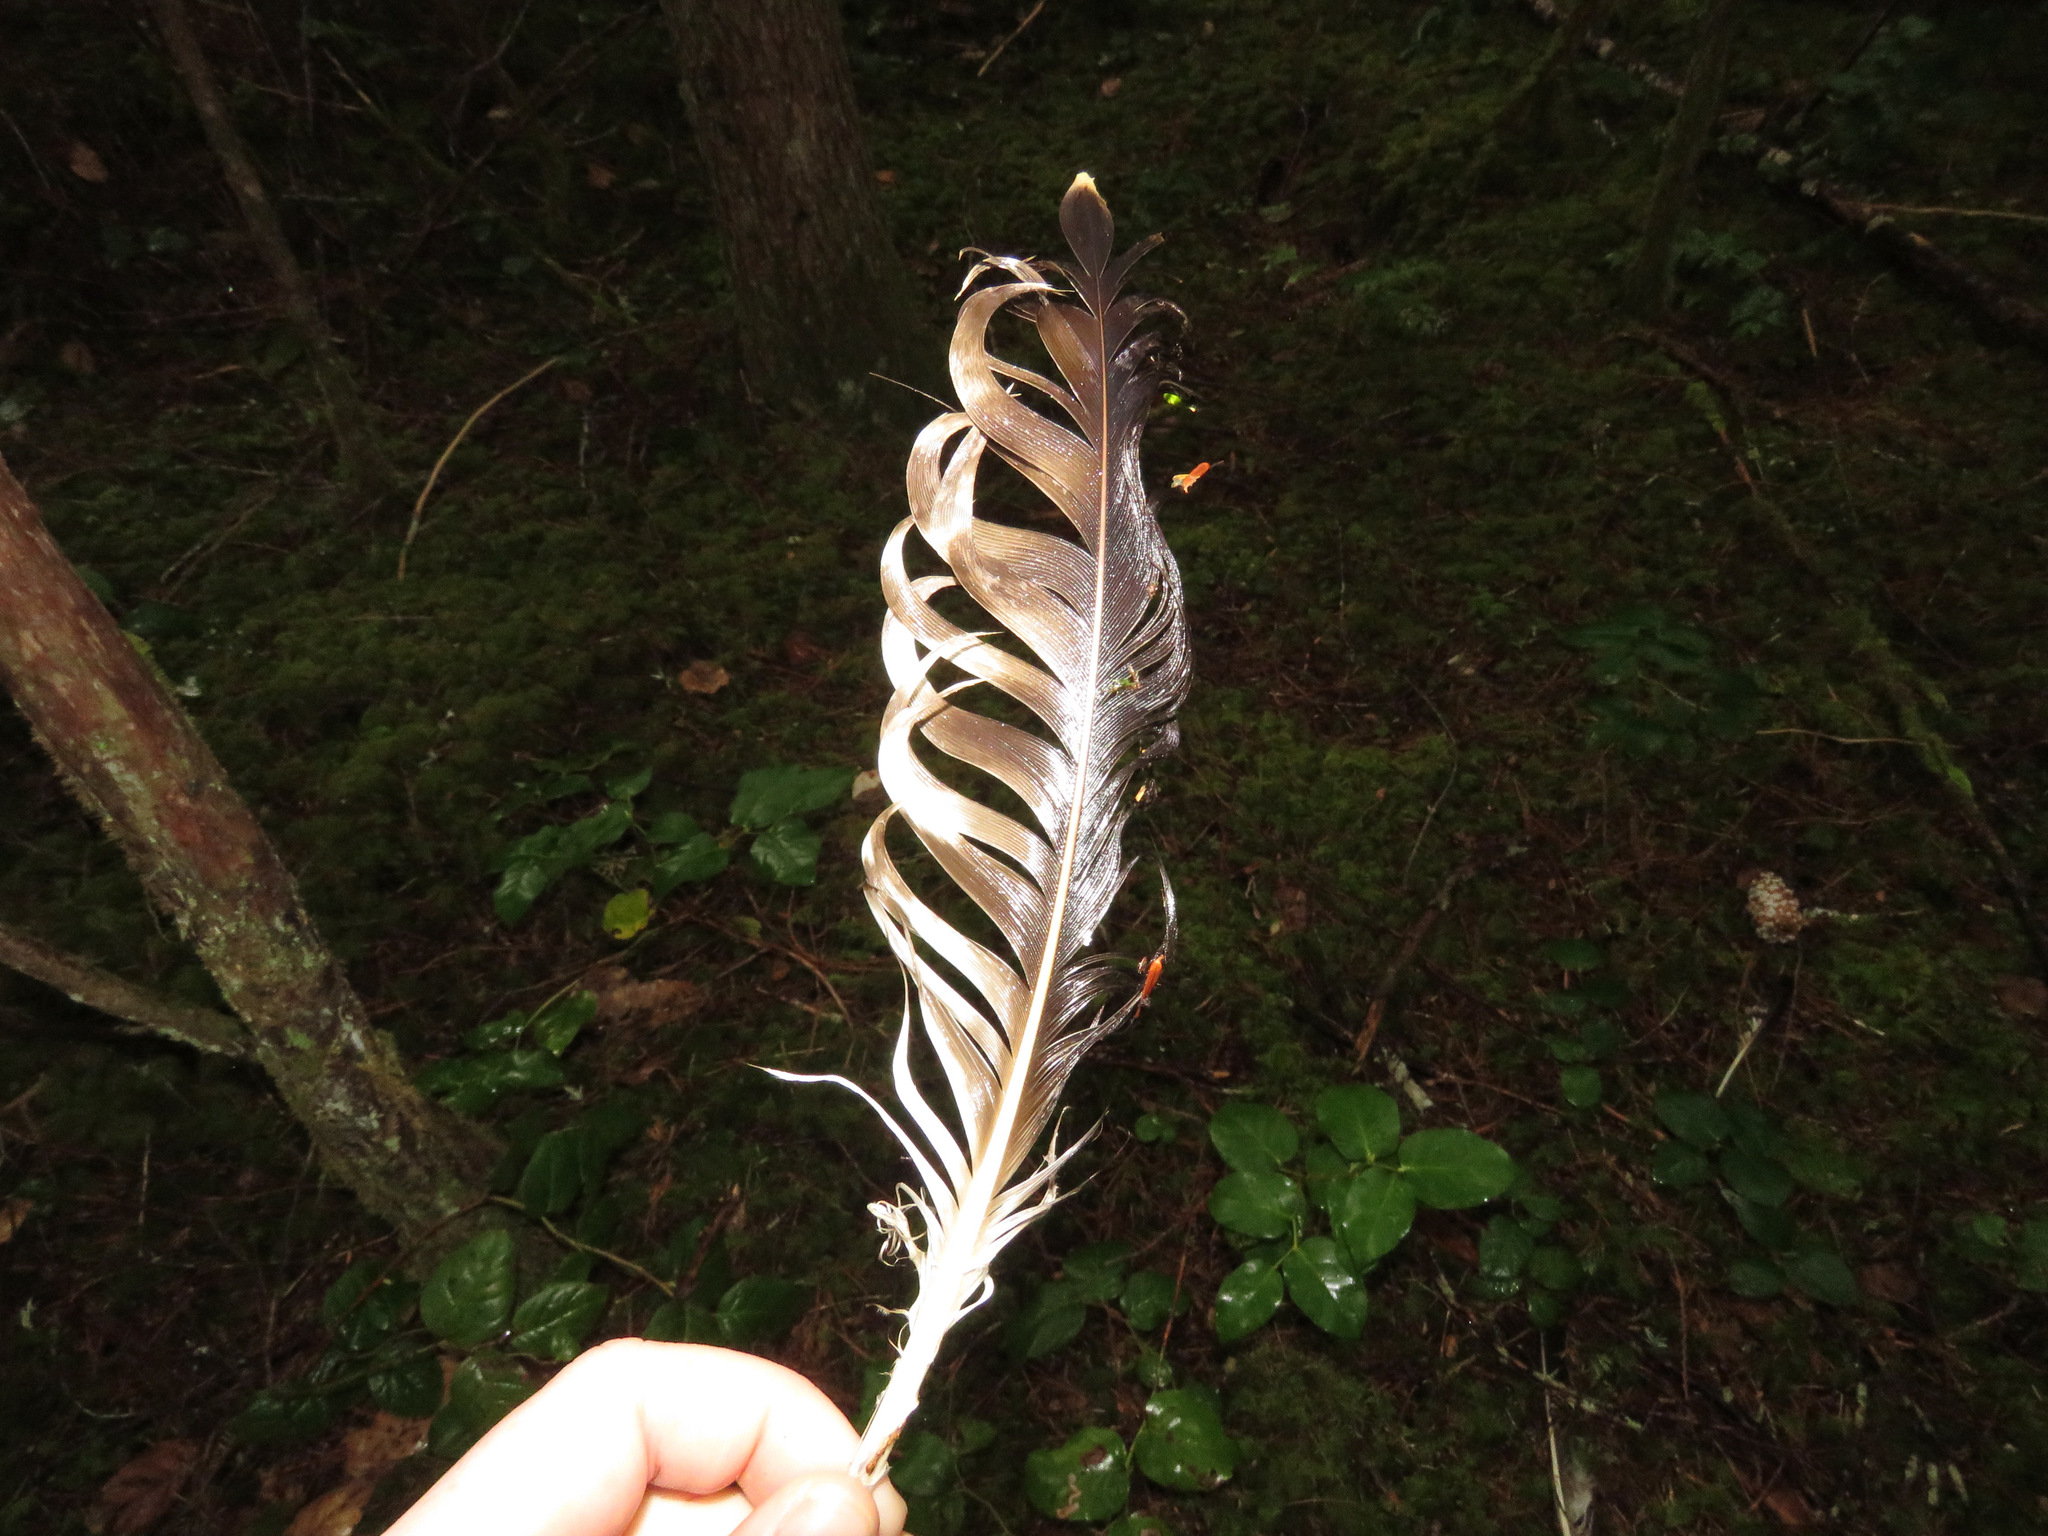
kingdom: Animalia
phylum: Chordata
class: Aves
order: Accipitriformes
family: Pandionidae
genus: Pandion
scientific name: Pandion haliaetus
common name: Osprey
